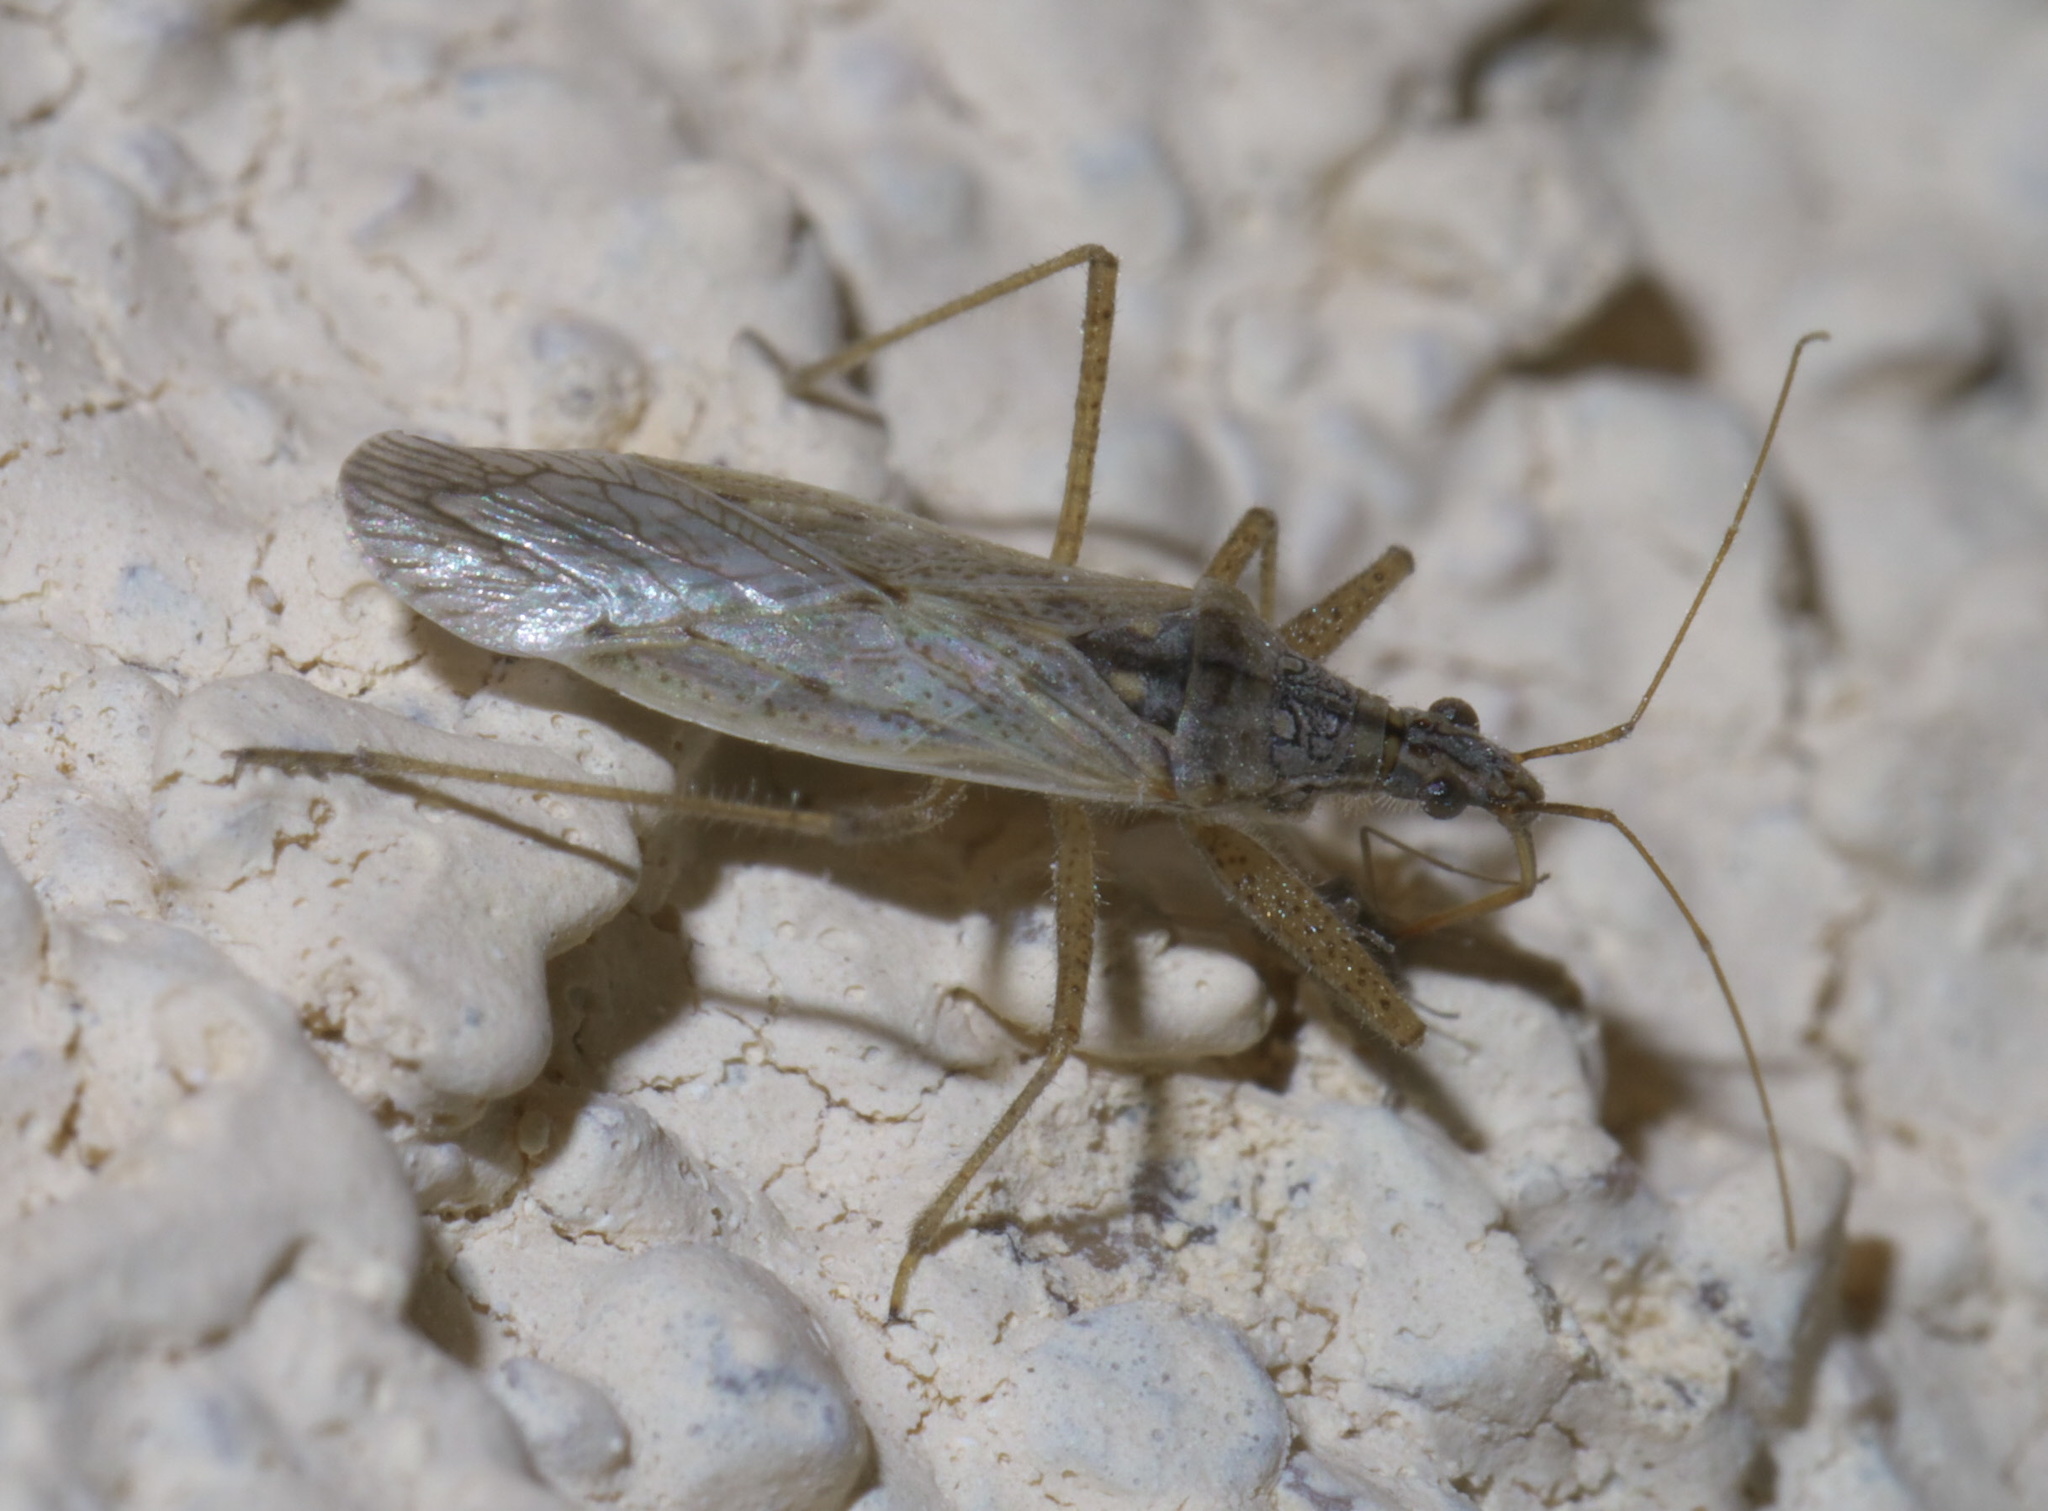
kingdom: Animalia
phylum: Arthropoda
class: Insecta
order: Hemiptera
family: Nabidae
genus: Nabis
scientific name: Nabis americoferus
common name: Common damsel bug
